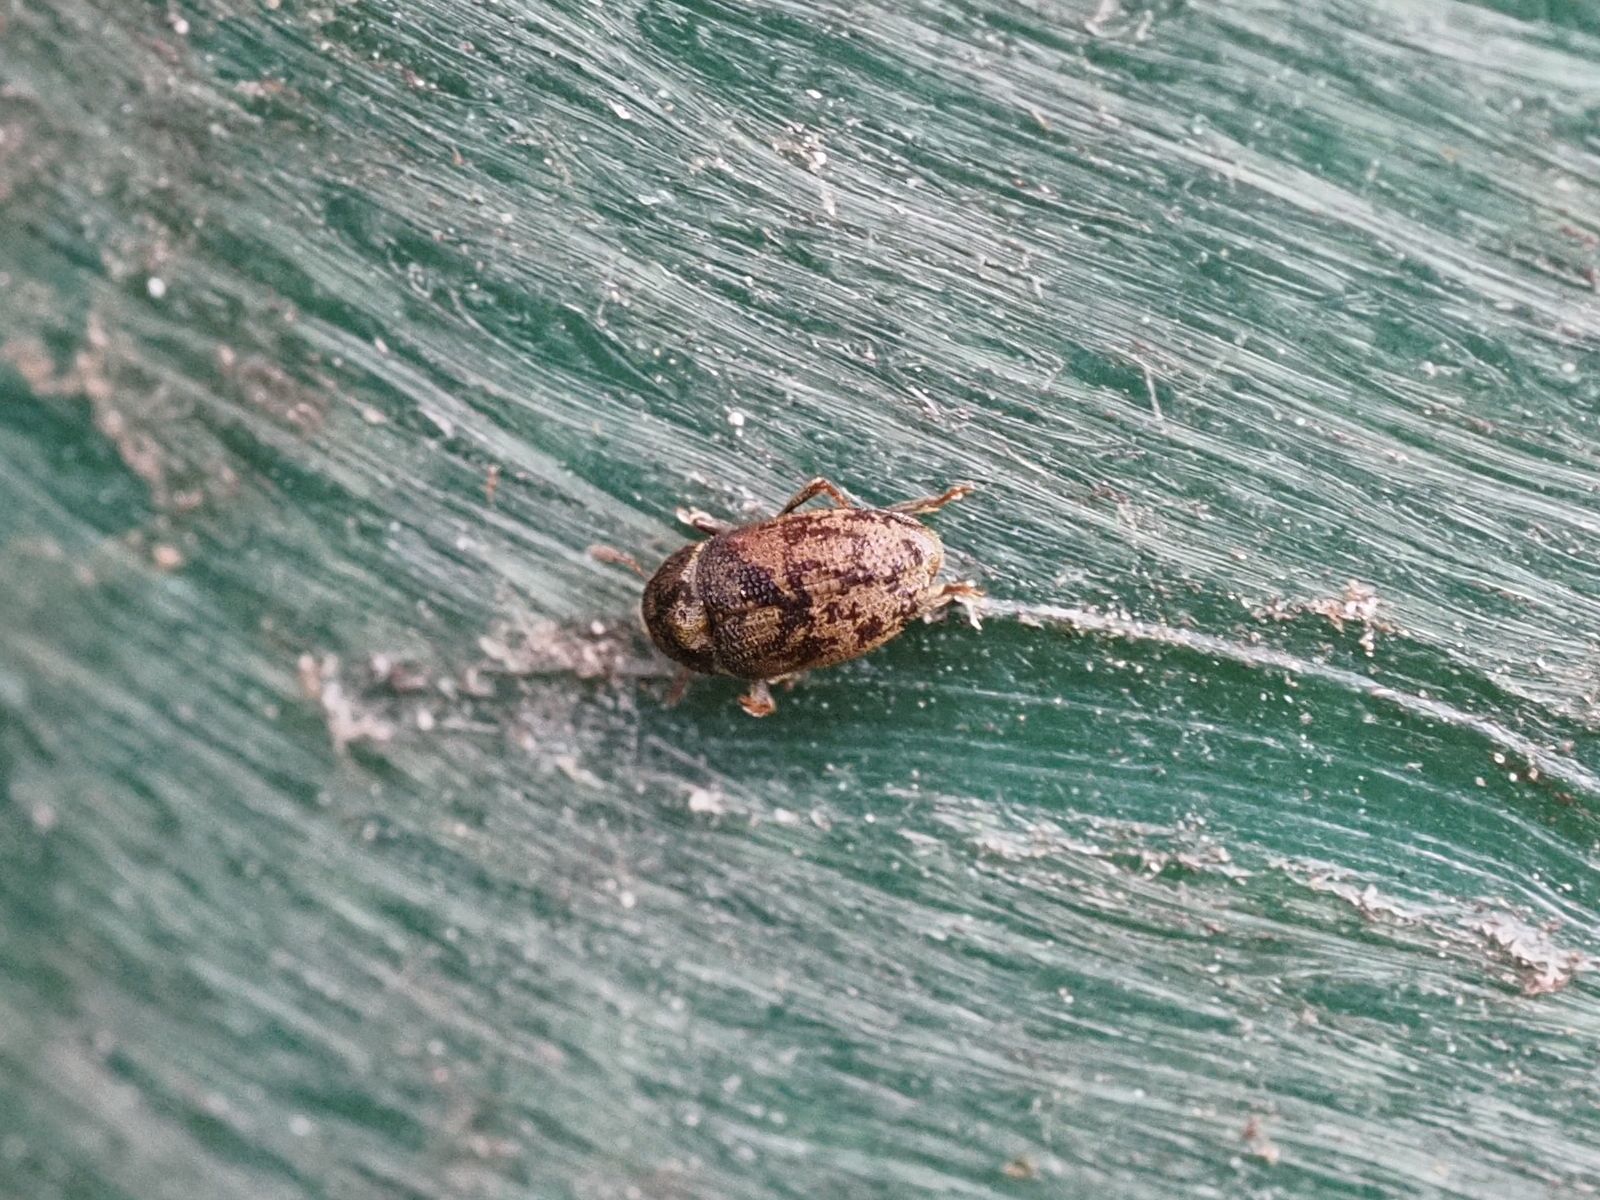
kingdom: Animalia
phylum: Arthropoda
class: Insecta
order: Coleoptera
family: Curculionidae
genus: Hylesinus
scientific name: Hylesinus varius
